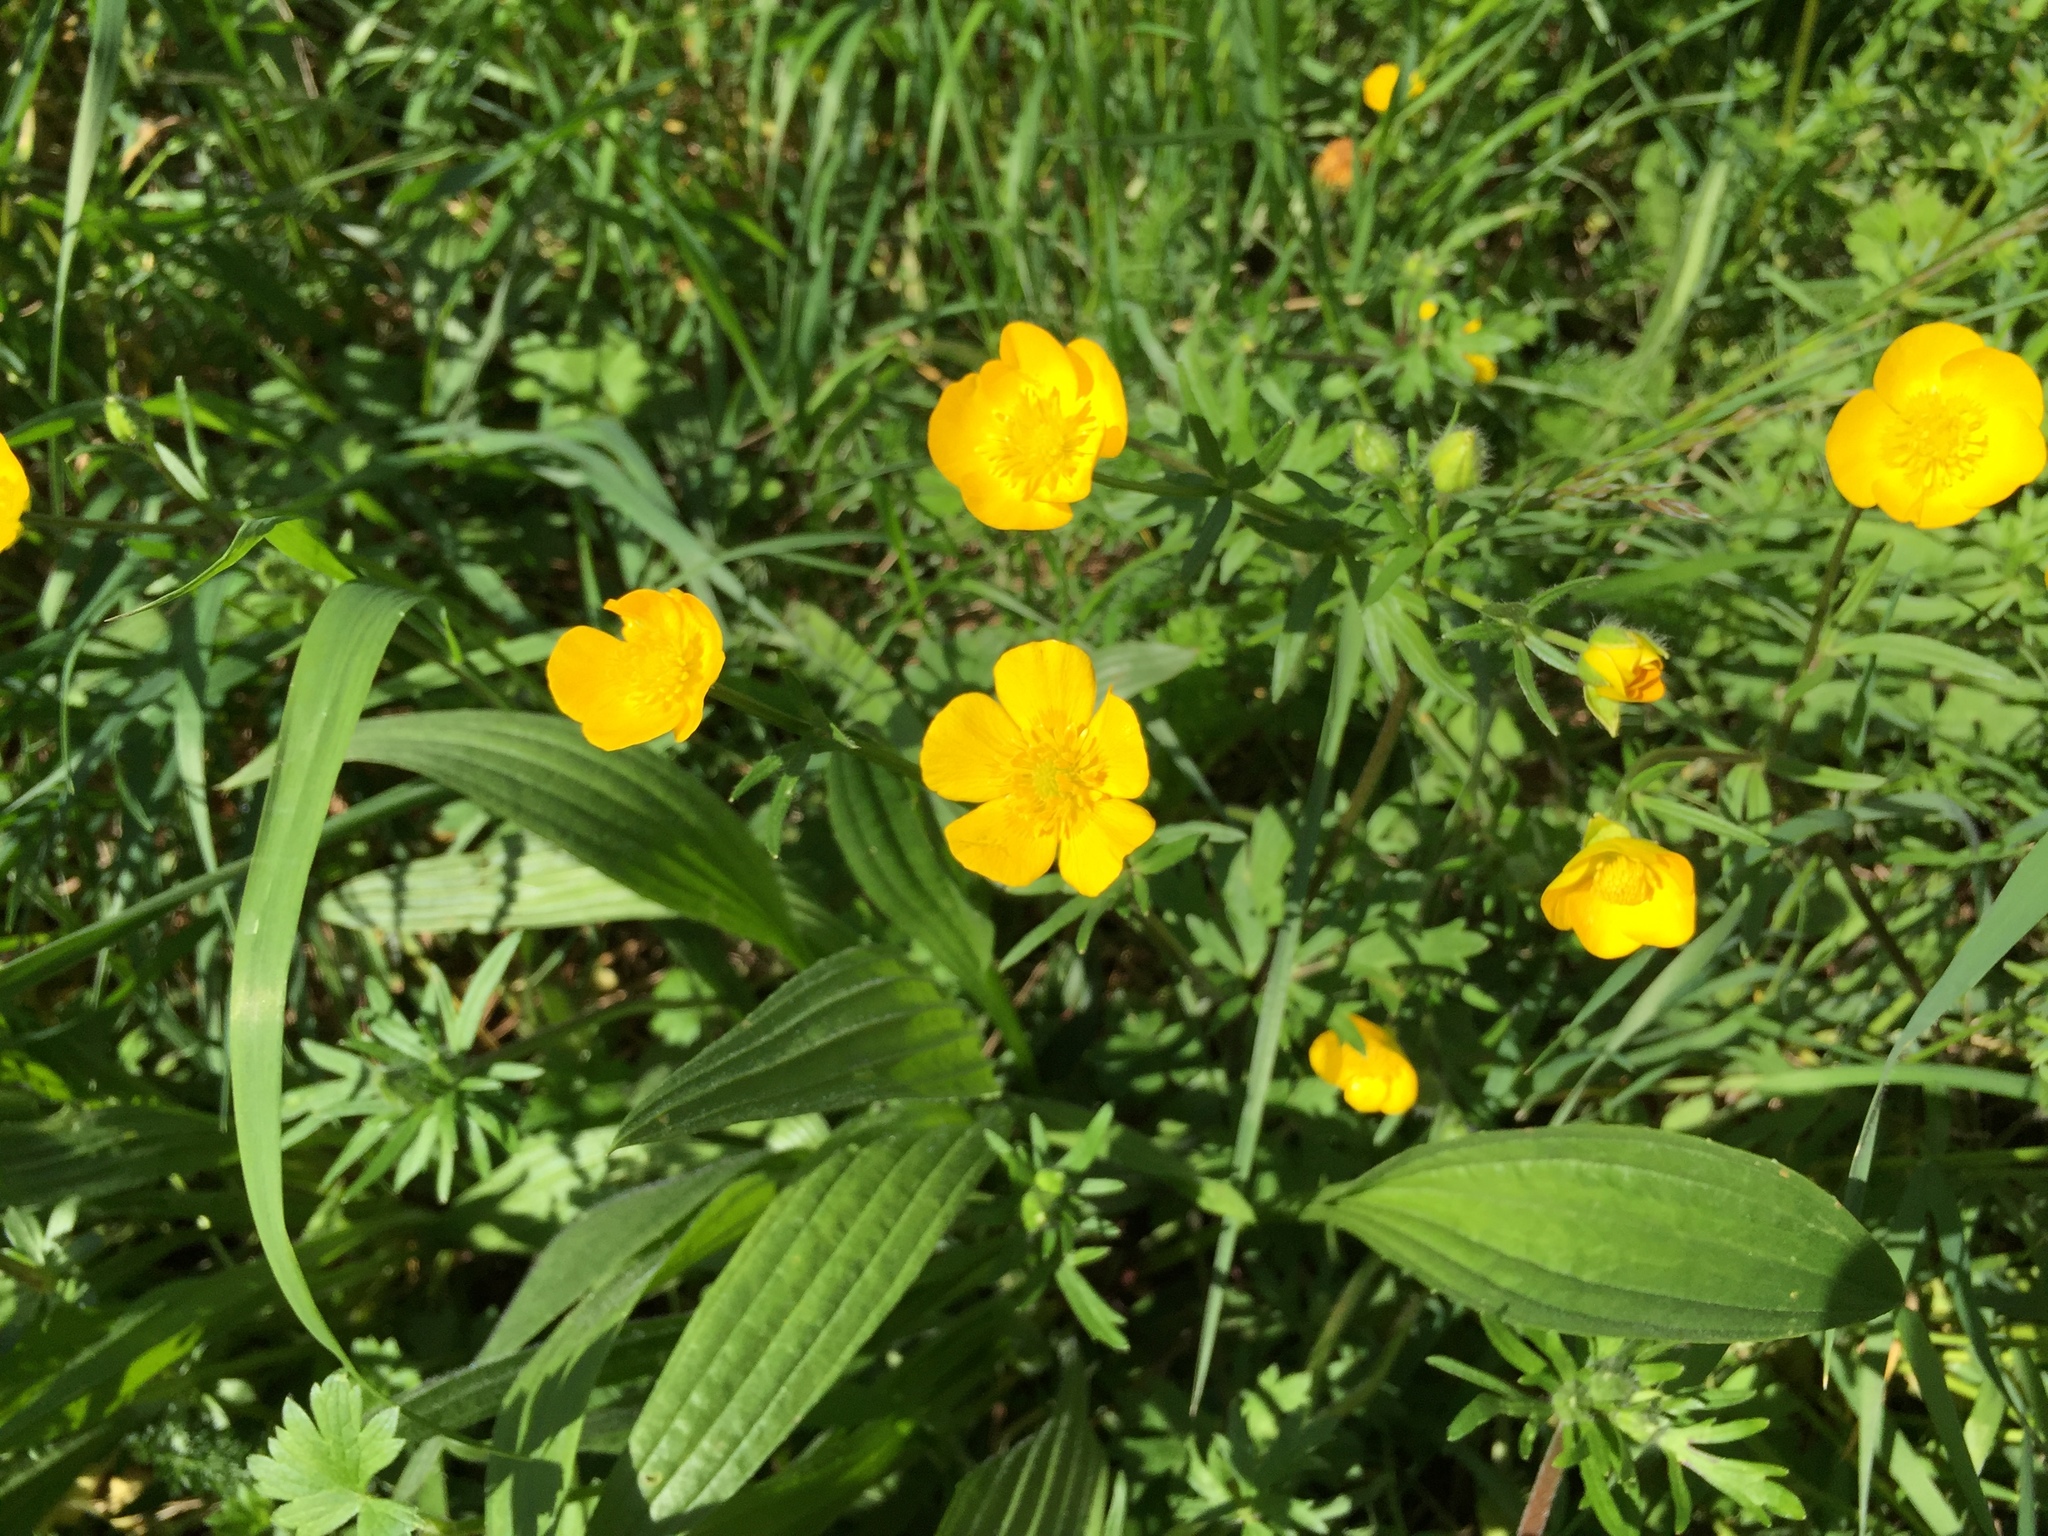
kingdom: Plantae
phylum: Tracheophyta
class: Magnoliopsida
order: Ranunculales
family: Ranunculaceae
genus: Ranunculus
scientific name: Ranunculus acris
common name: Meadow buttercup
